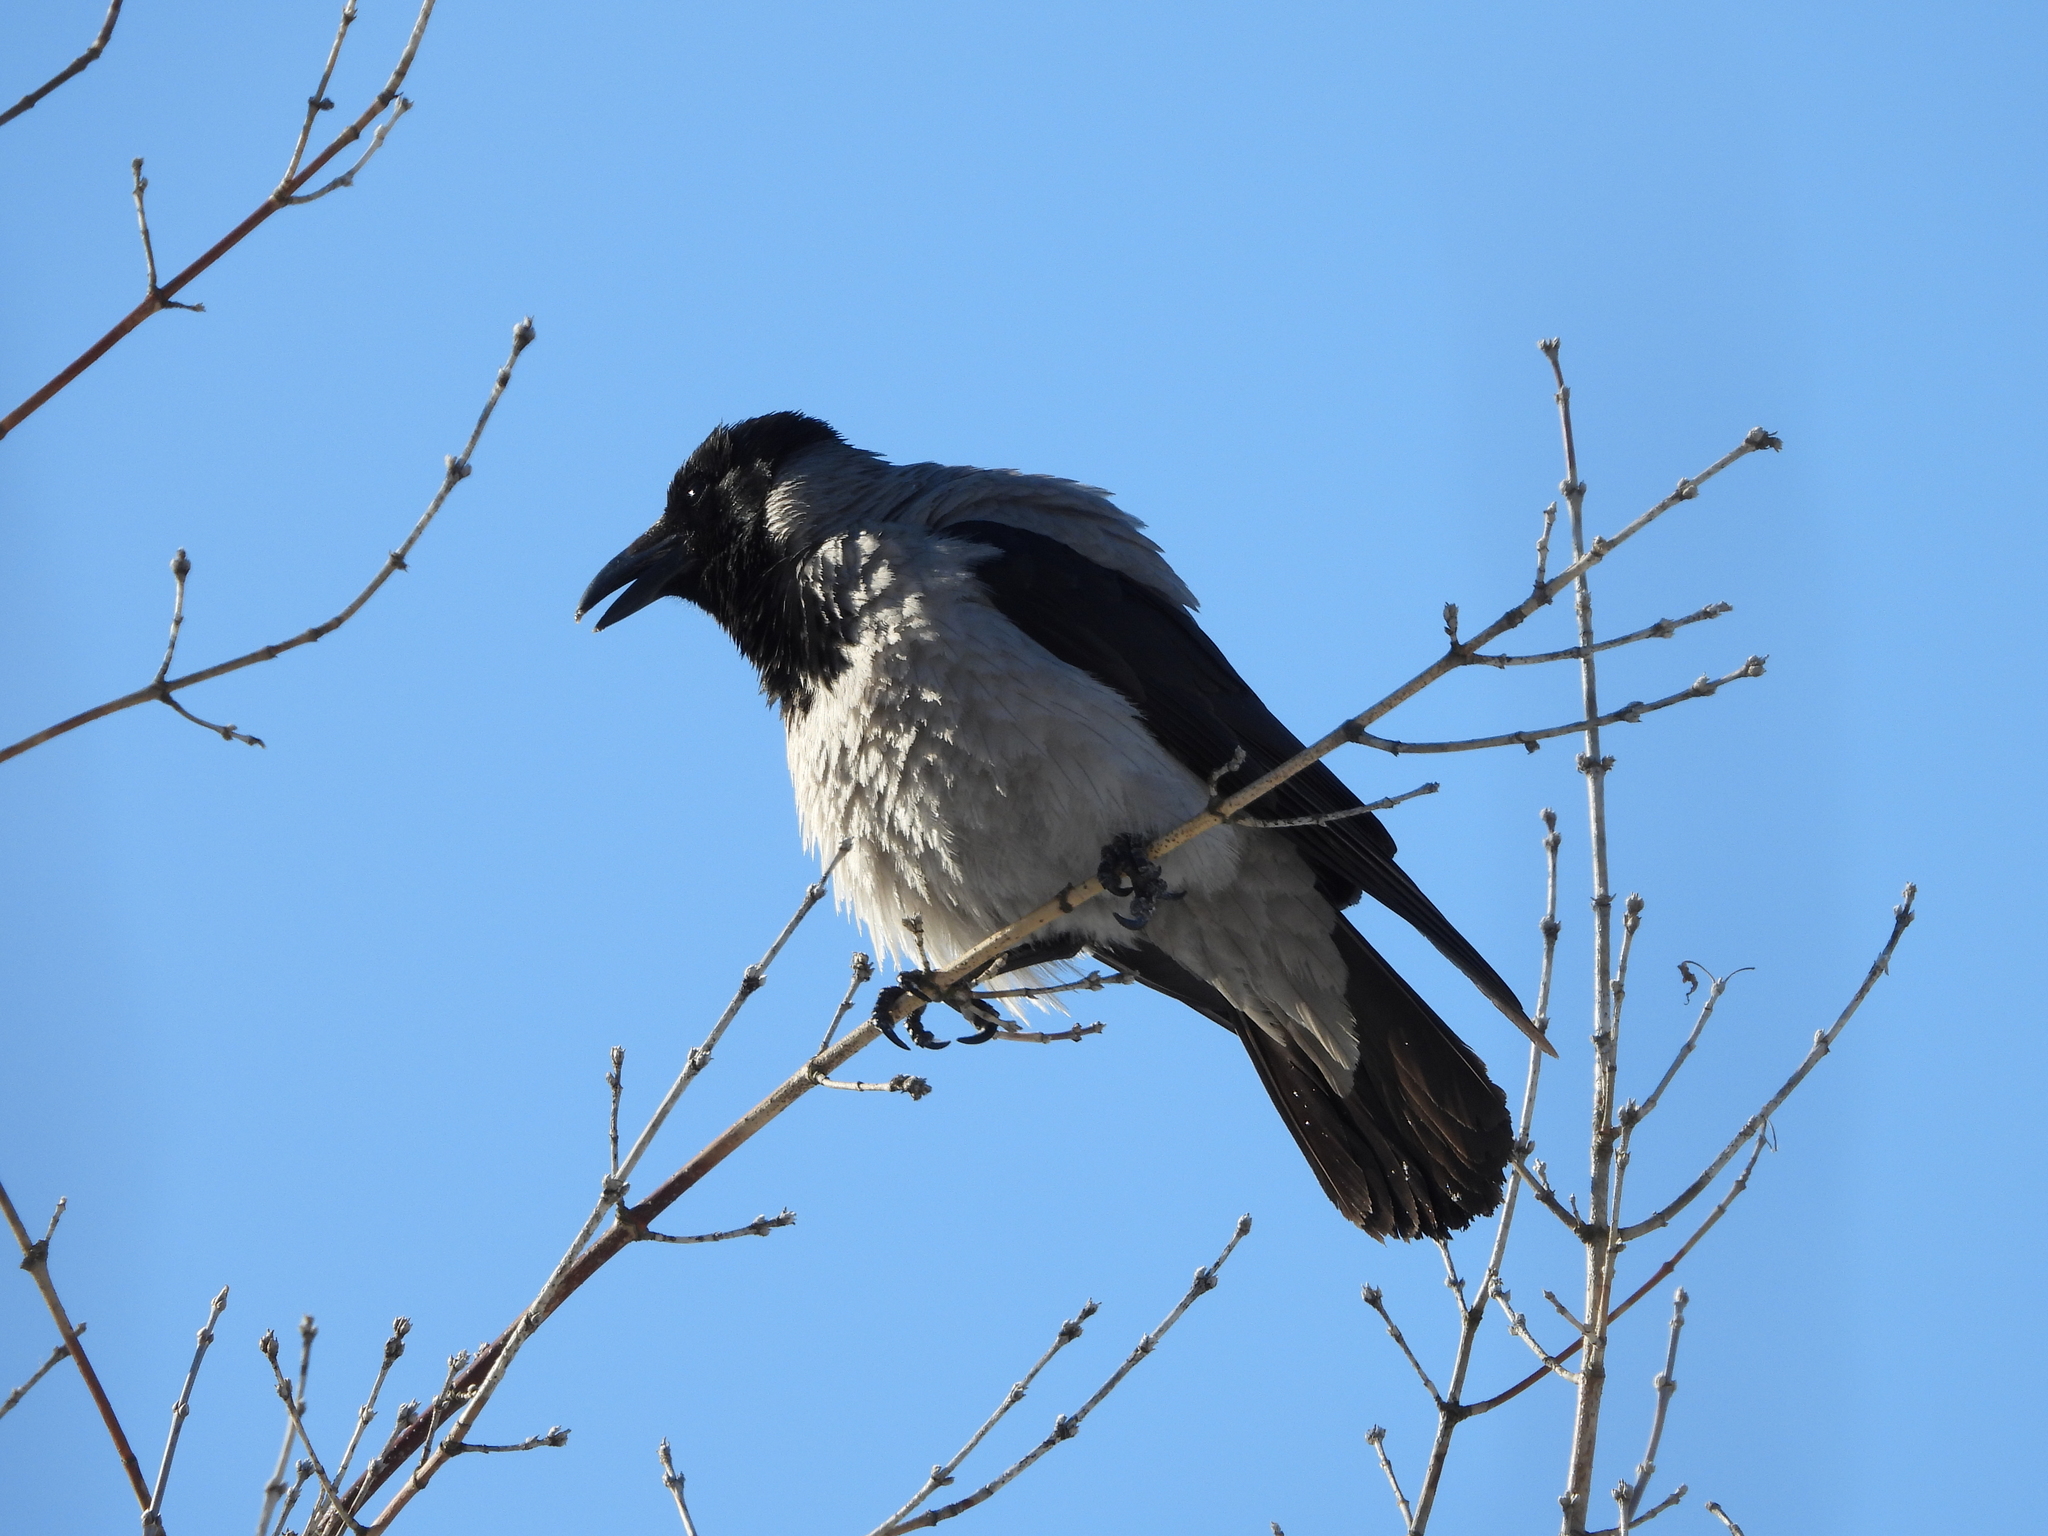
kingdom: Animalia
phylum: Chordata
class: Aves
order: Passeriformes
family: Corvidae
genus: Corvus
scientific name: Corvus cornix
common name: Hooded crow
